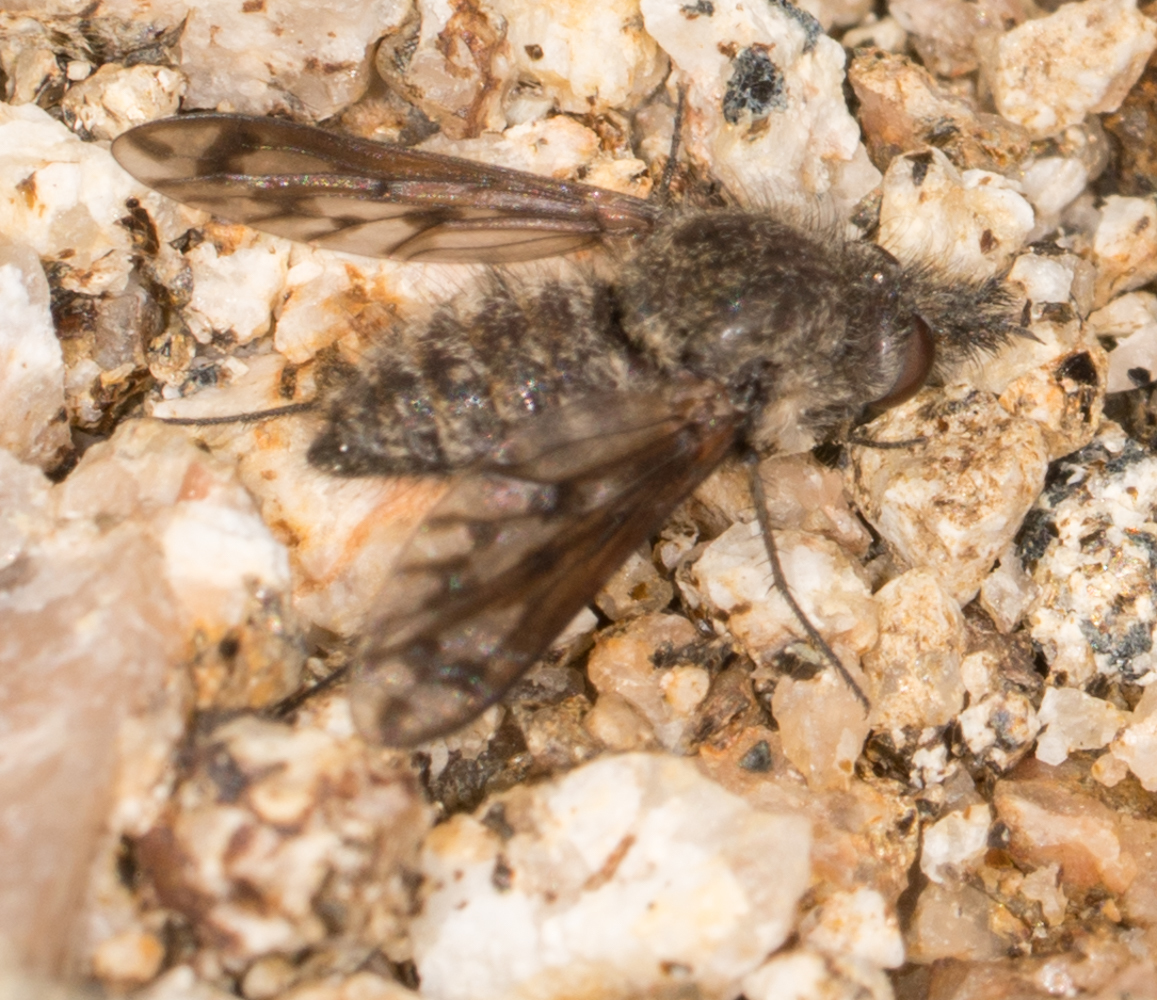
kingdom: Animalia
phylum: Arthropoda
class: Insecta
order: Diptera
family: Bombyliidae
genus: Conophorus
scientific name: Conophorus fenestratus
